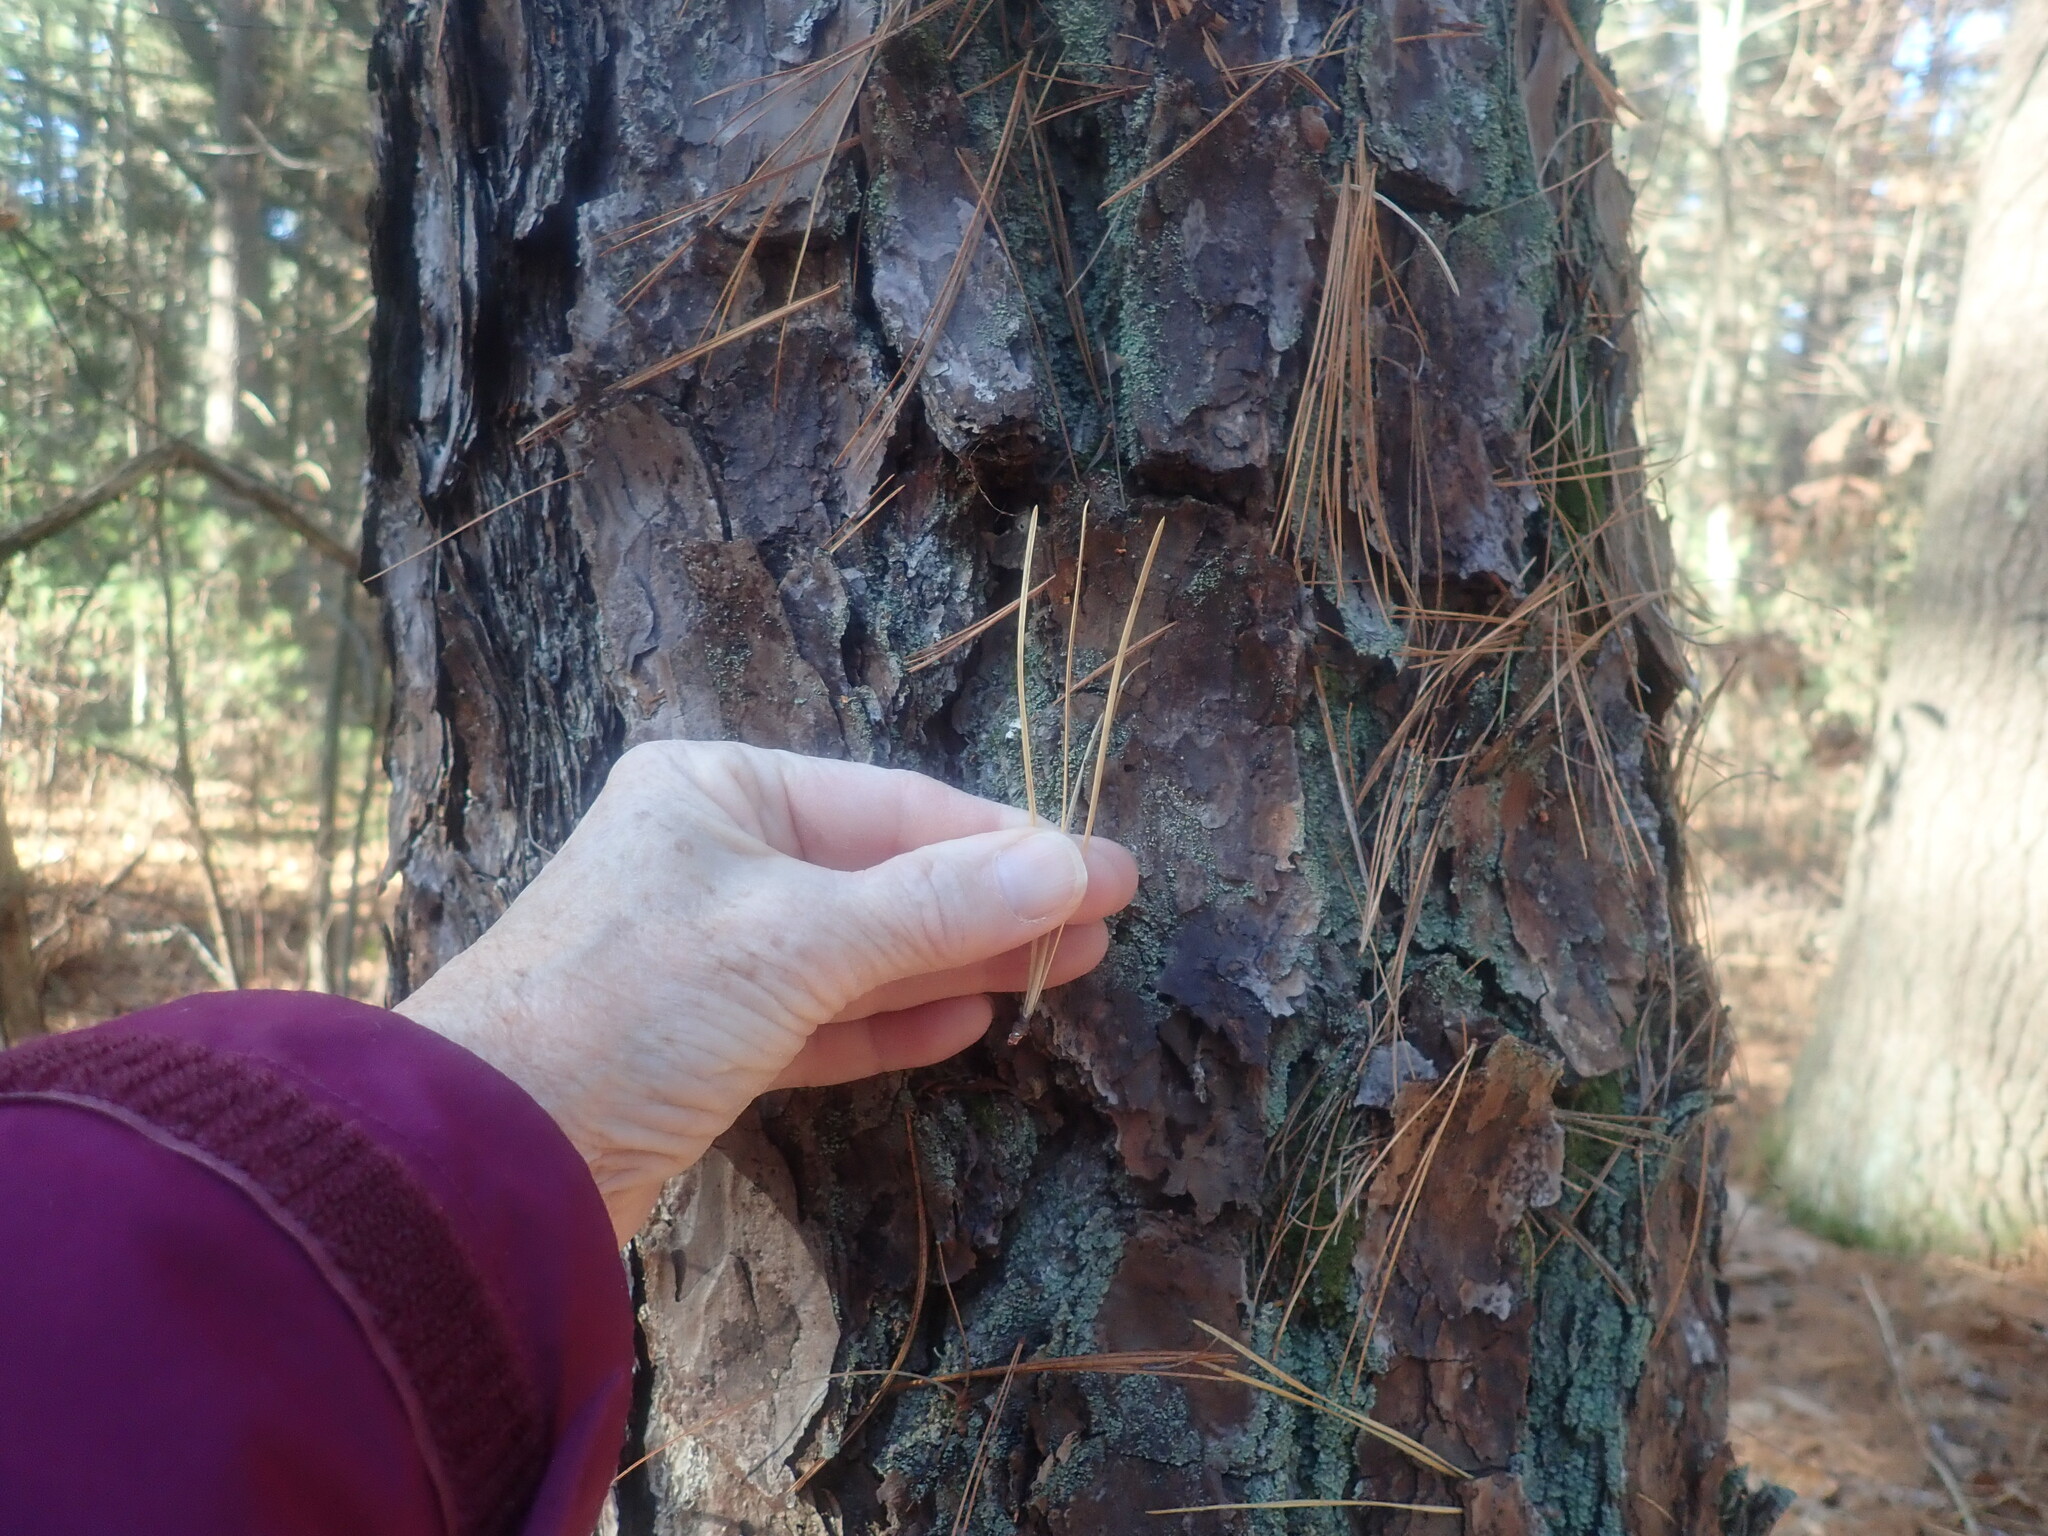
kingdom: Plantae
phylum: Tracheophyta
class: Pinopsida
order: Pinales
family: Pinaceae
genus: Pinus
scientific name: Pinus rigida
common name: Pitch pine
